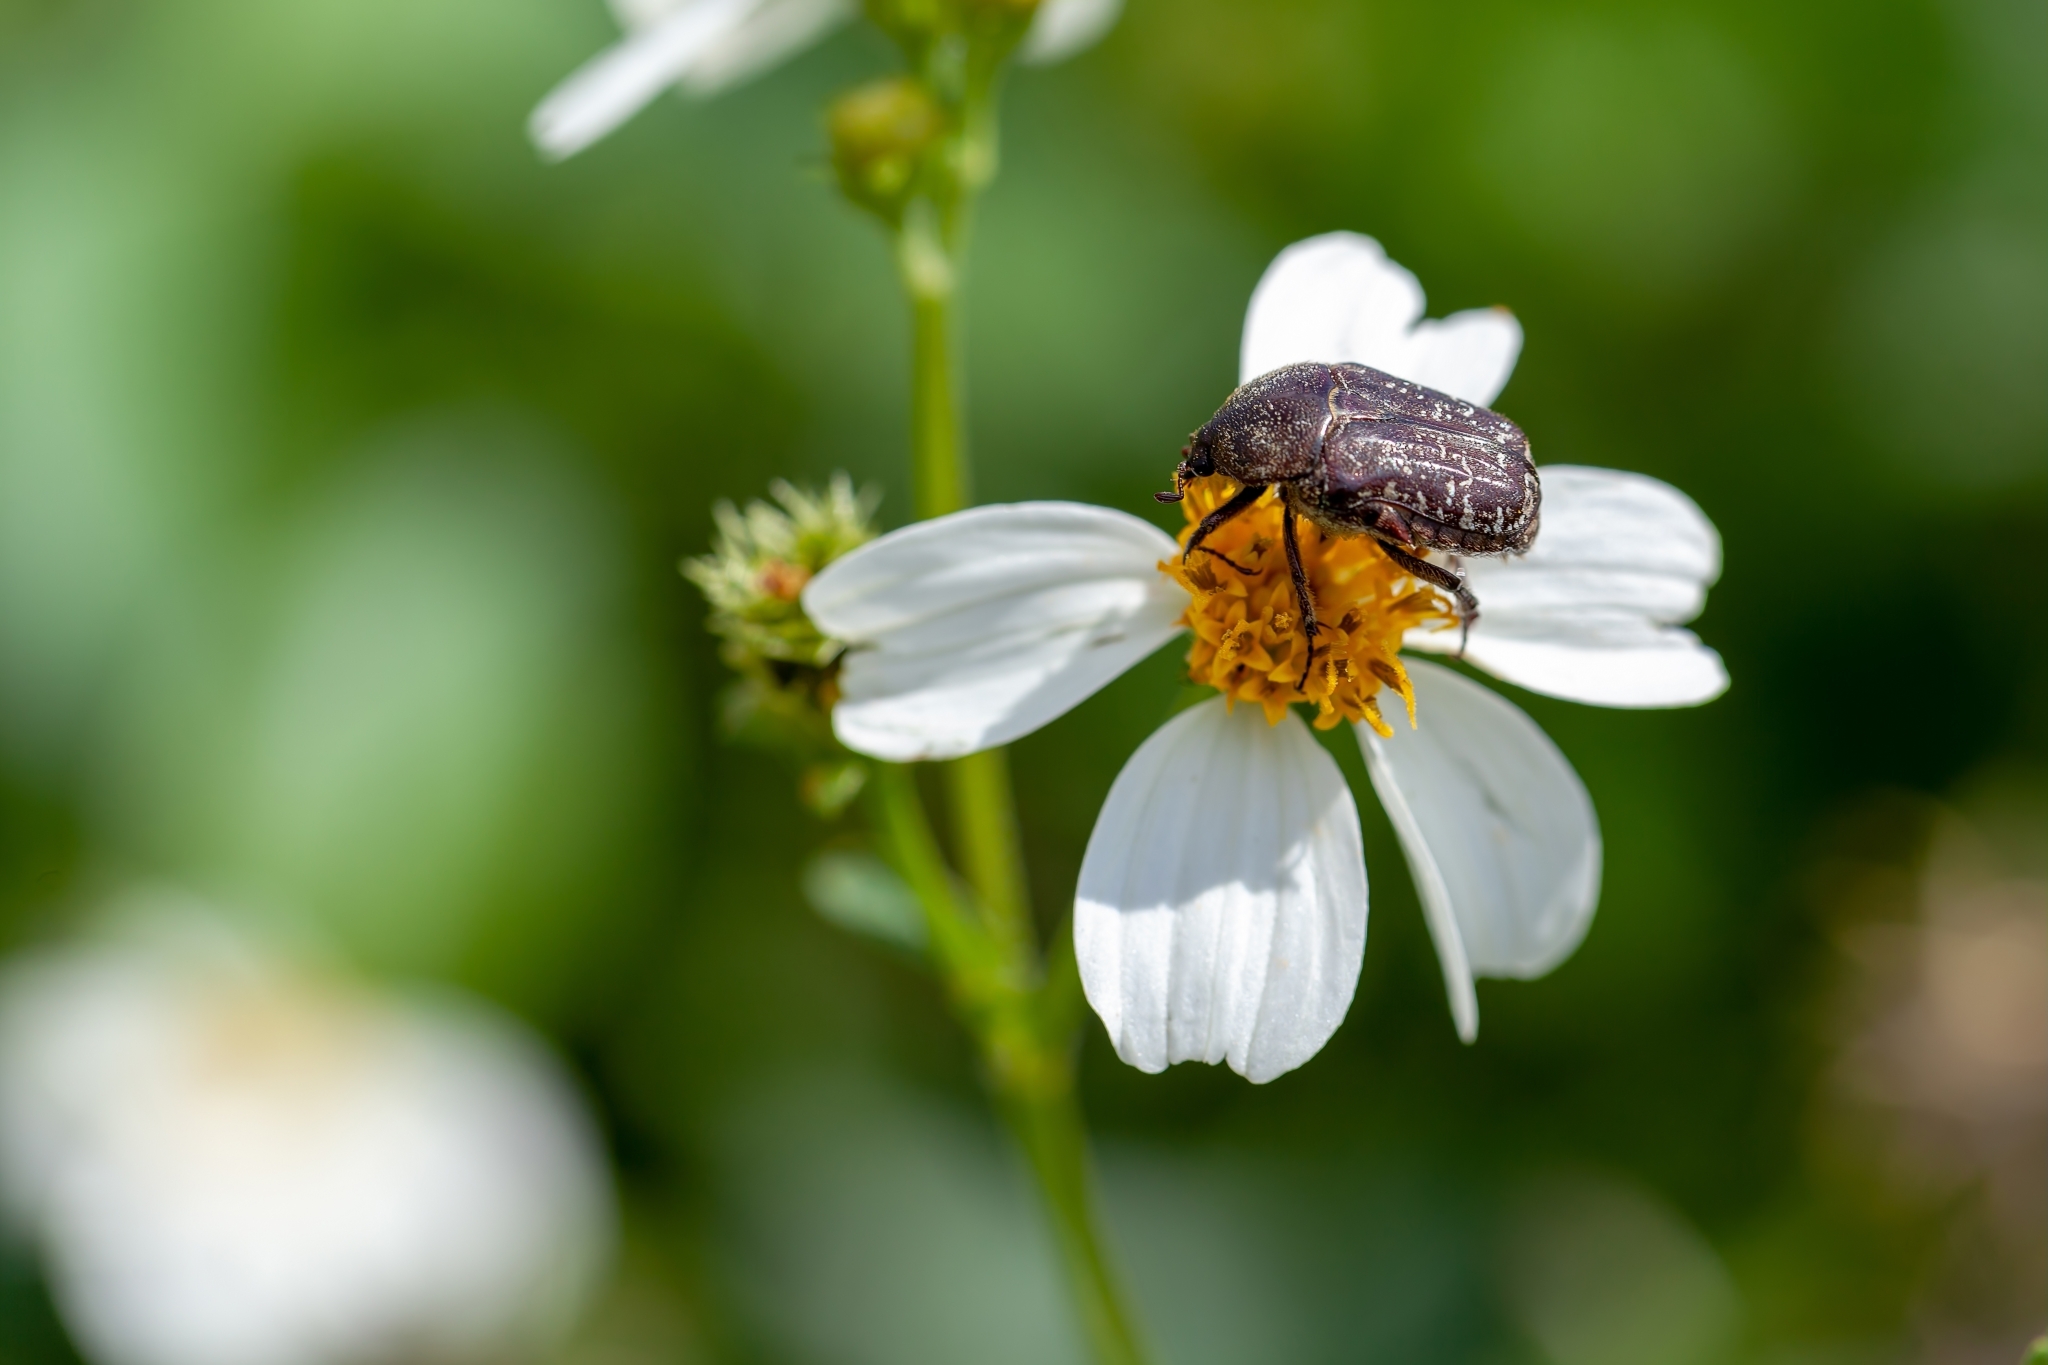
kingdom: Animalia
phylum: Arthropoda
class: Insecta
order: Coleoptera
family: Scarabaeidae
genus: Euphoria
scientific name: Euphoria sepulcralis
